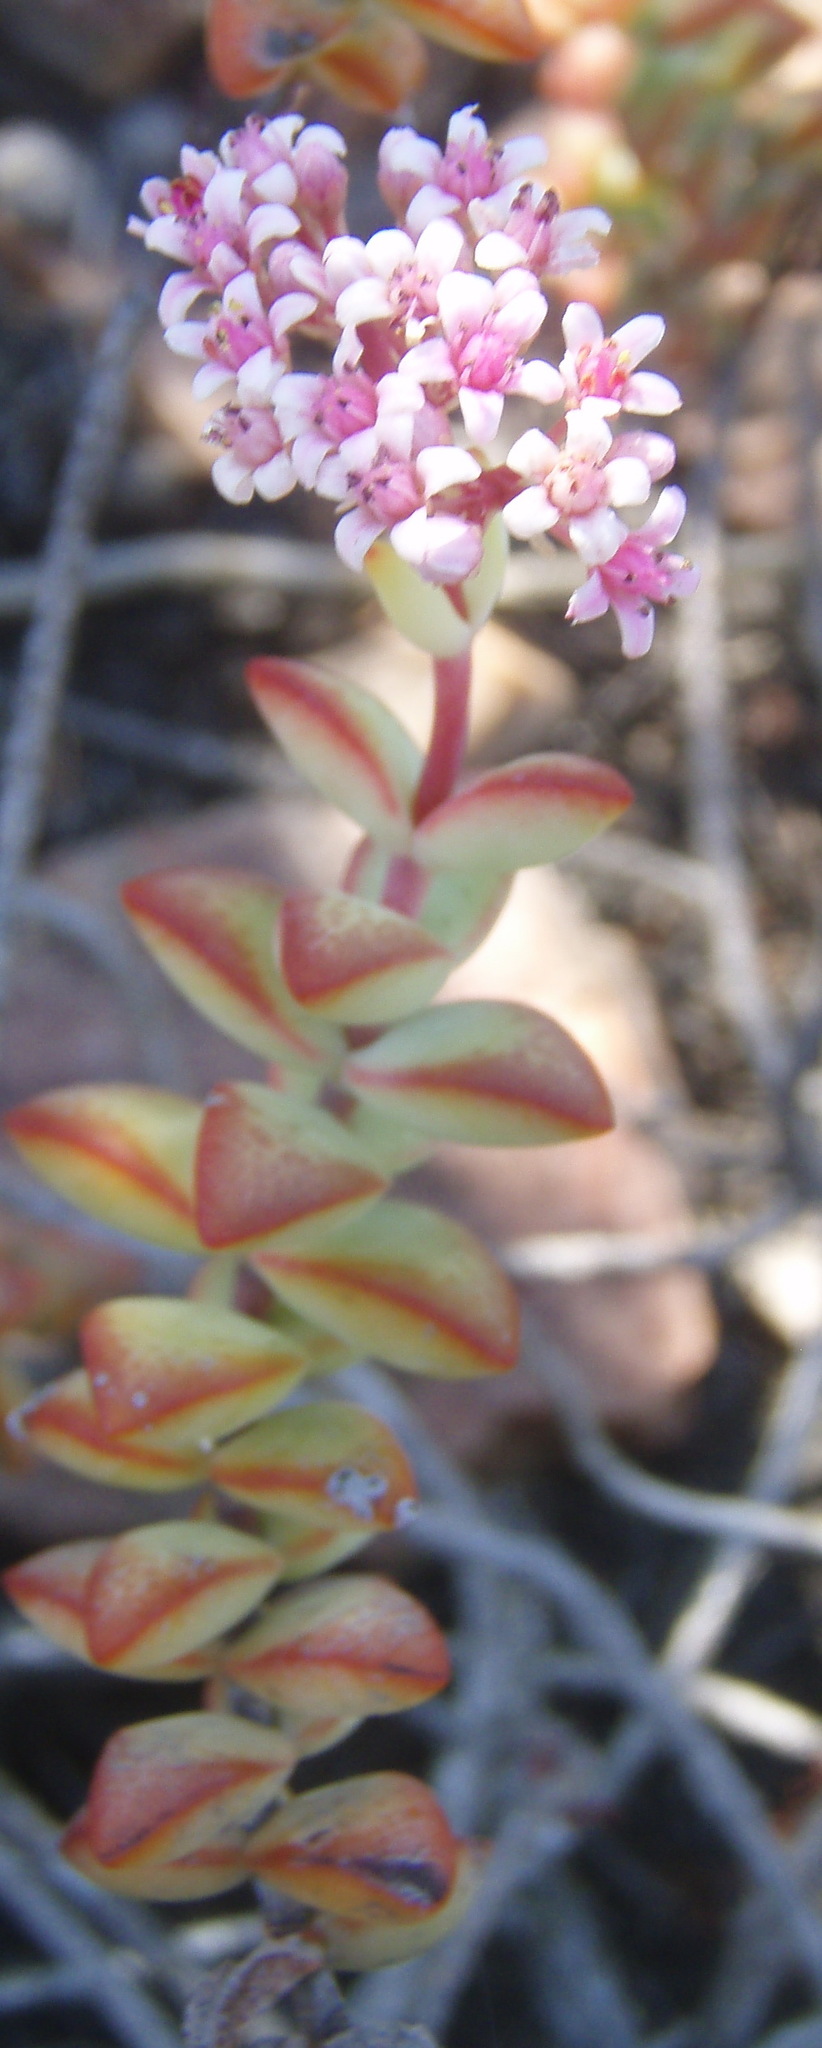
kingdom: Plantae
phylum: Tracheophyta
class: Magnoliopsida
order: Saxifragales
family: Crassulaceae
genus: Crassula
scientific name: Crassula rupestris
